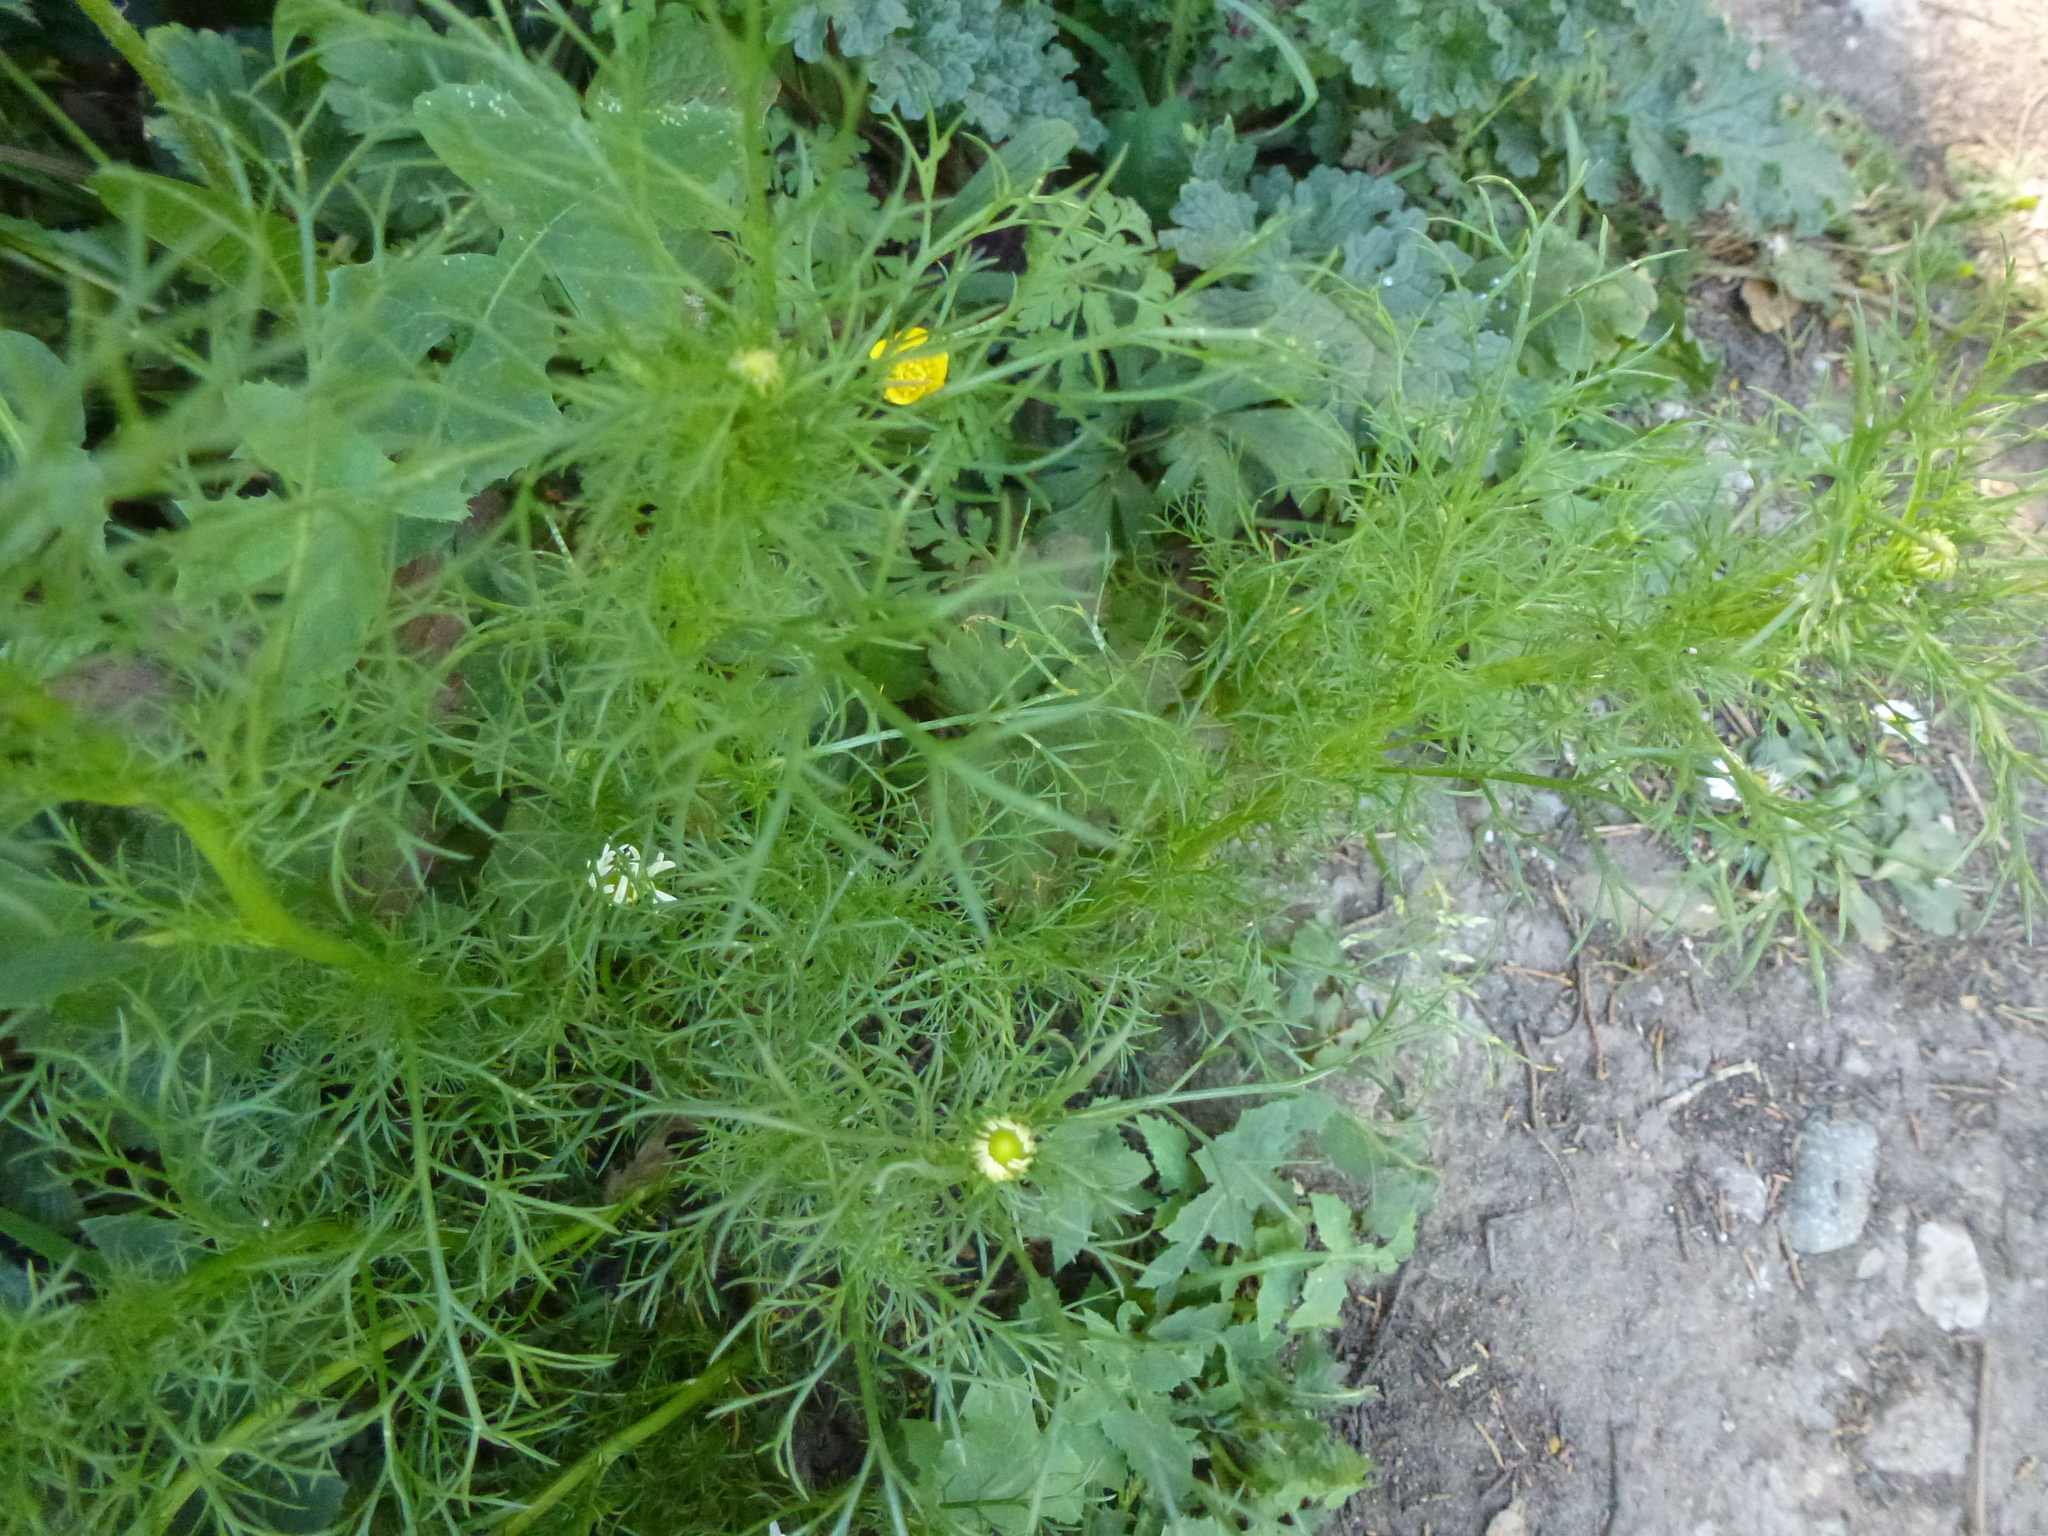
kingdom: Plantae
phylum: Tracheophyta
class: Magnoliopsida
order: Asterales
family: Asteraceae
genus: Tripleurospermum
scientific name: Tripleurospermum inodorum
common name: Scentless mayweed
